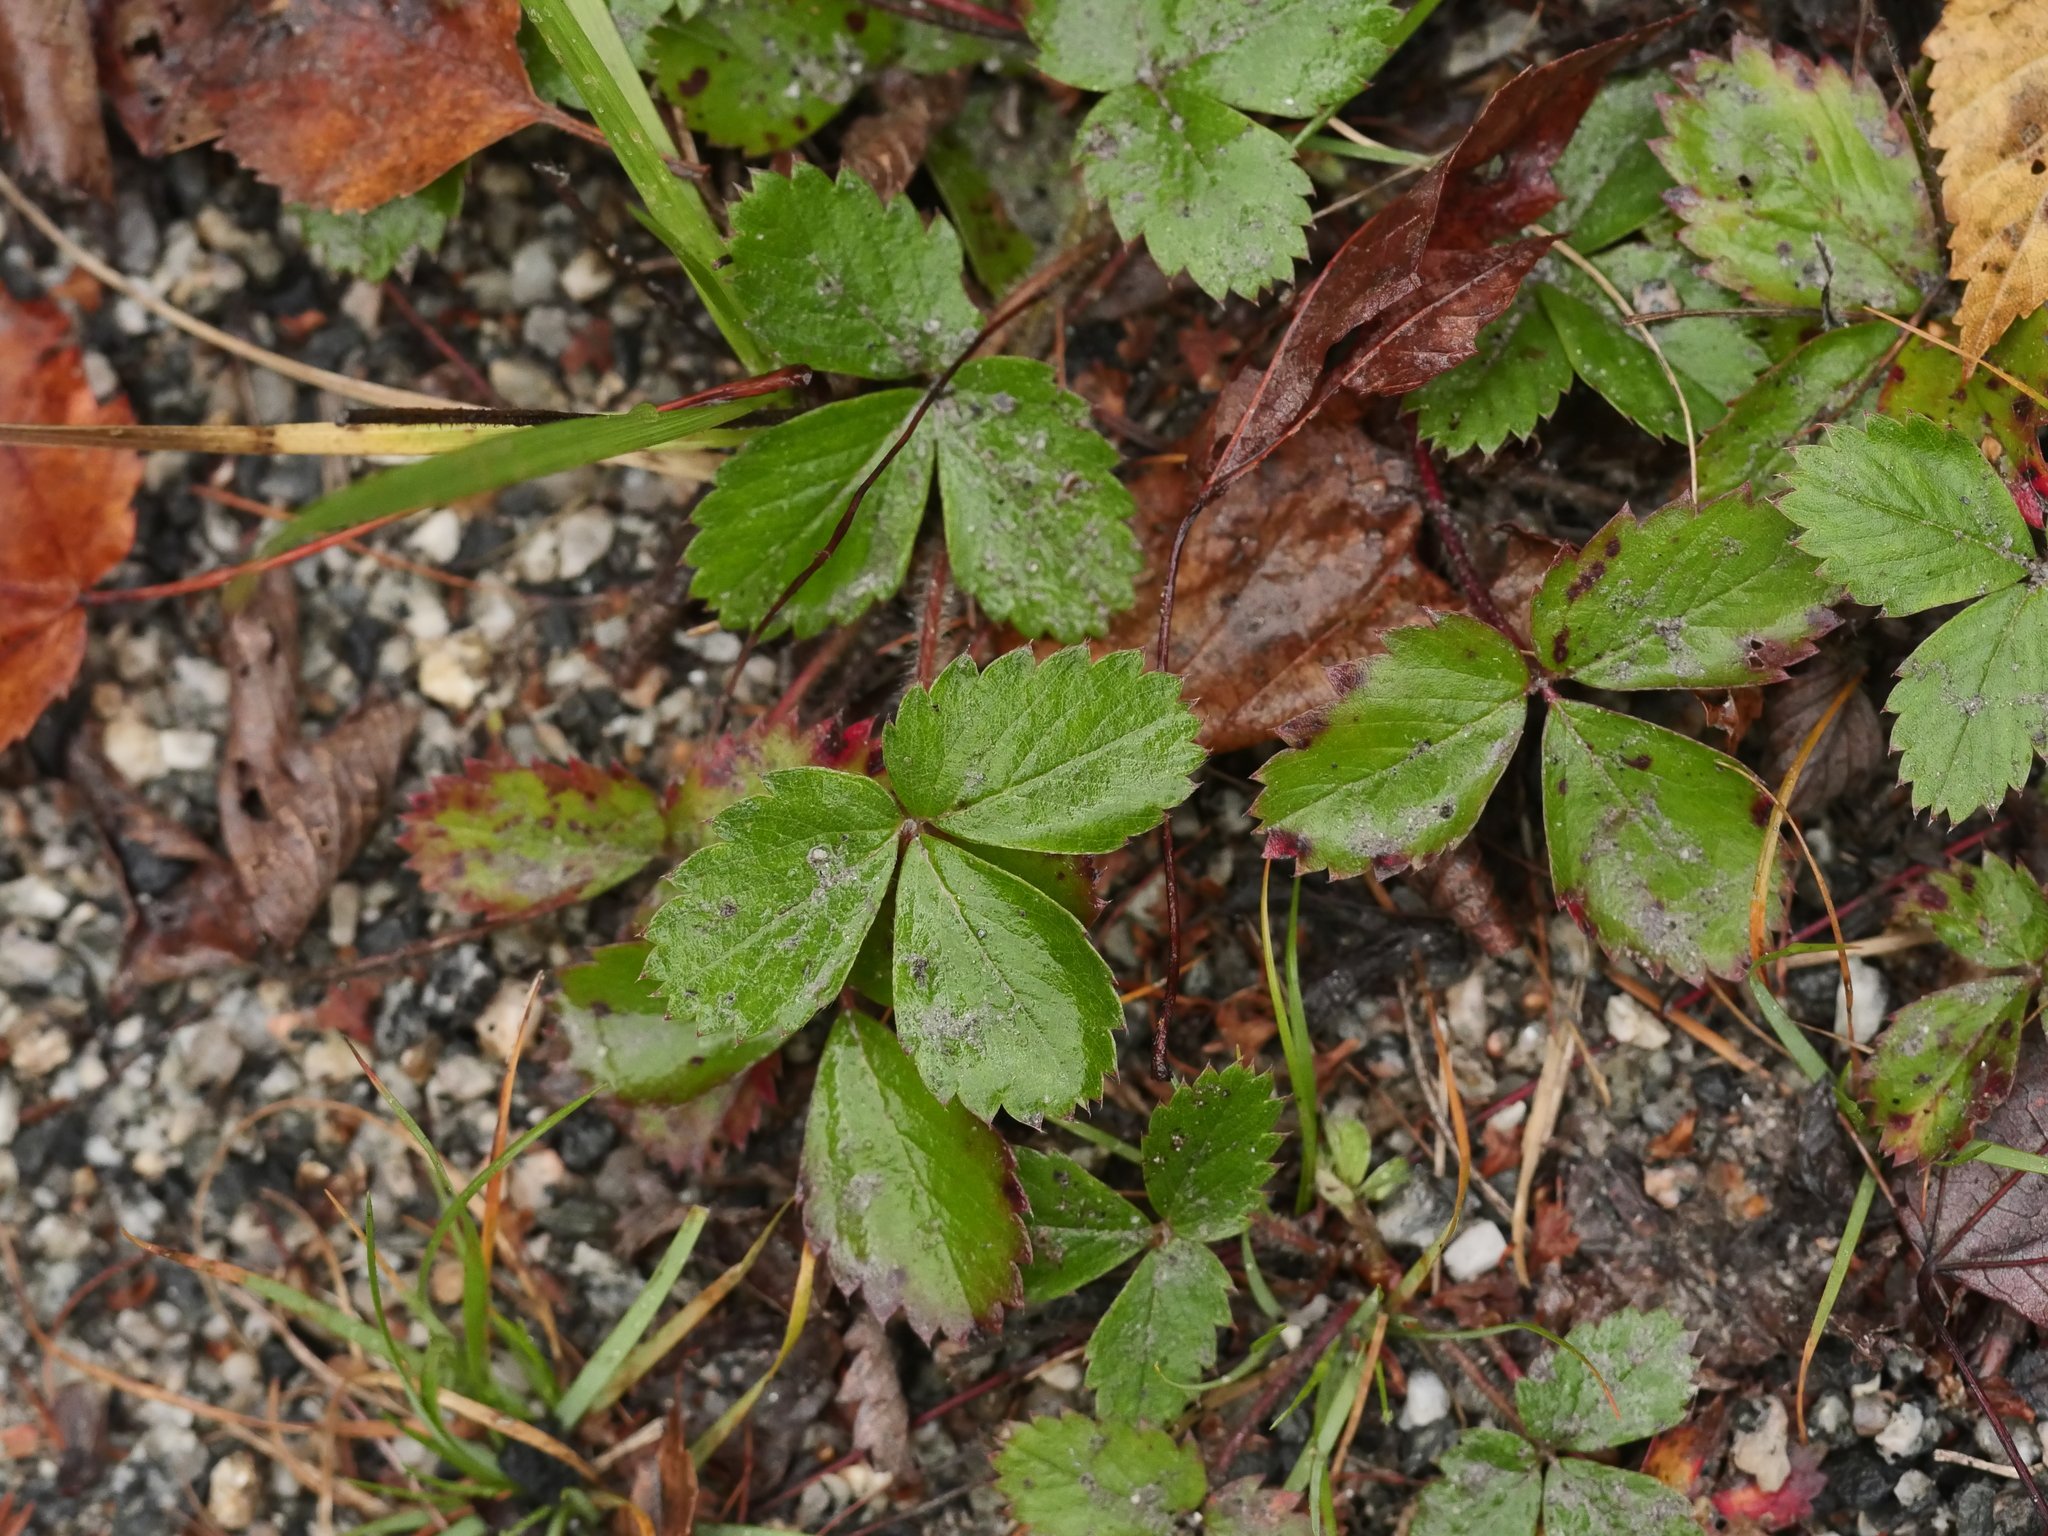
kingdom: Plantae
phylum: Tracheophyta
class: Magnoliopsida
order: Rosales
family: Rosaceae
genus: Fragaria
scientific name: Fragaria virginiana
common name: Thickleaved wild strawberry
